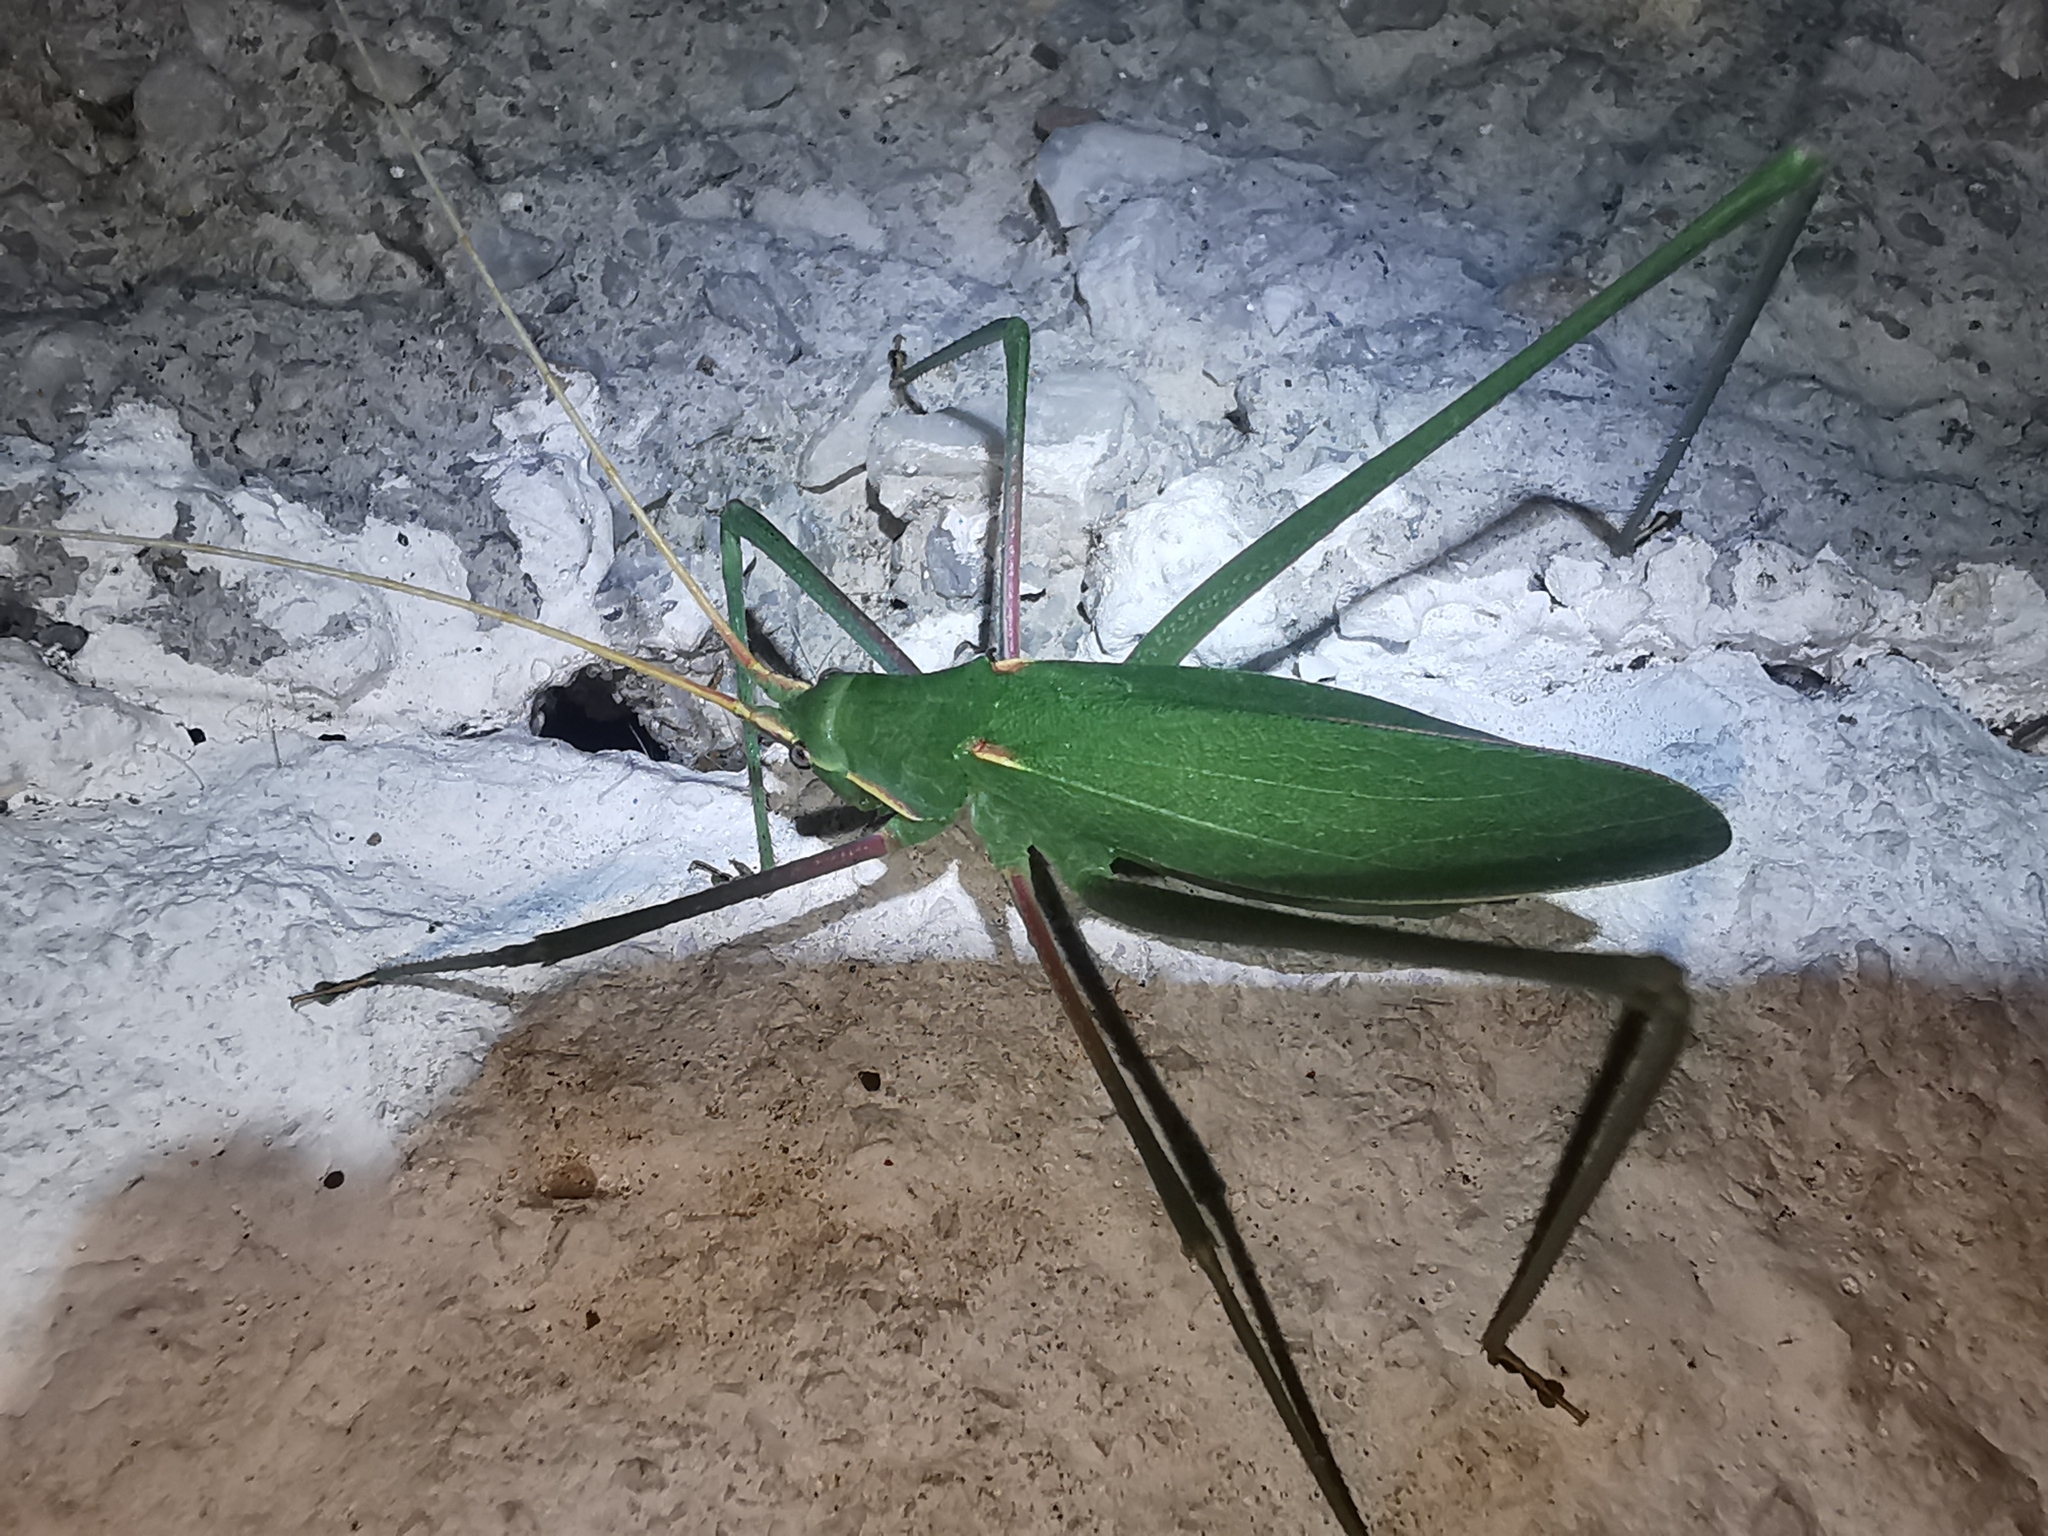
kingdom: Animalia
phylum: Arthropoda
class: Insecta
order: Orthoptera
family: Tettigoniidae
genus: Acrometopa
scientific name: Acrometopa
